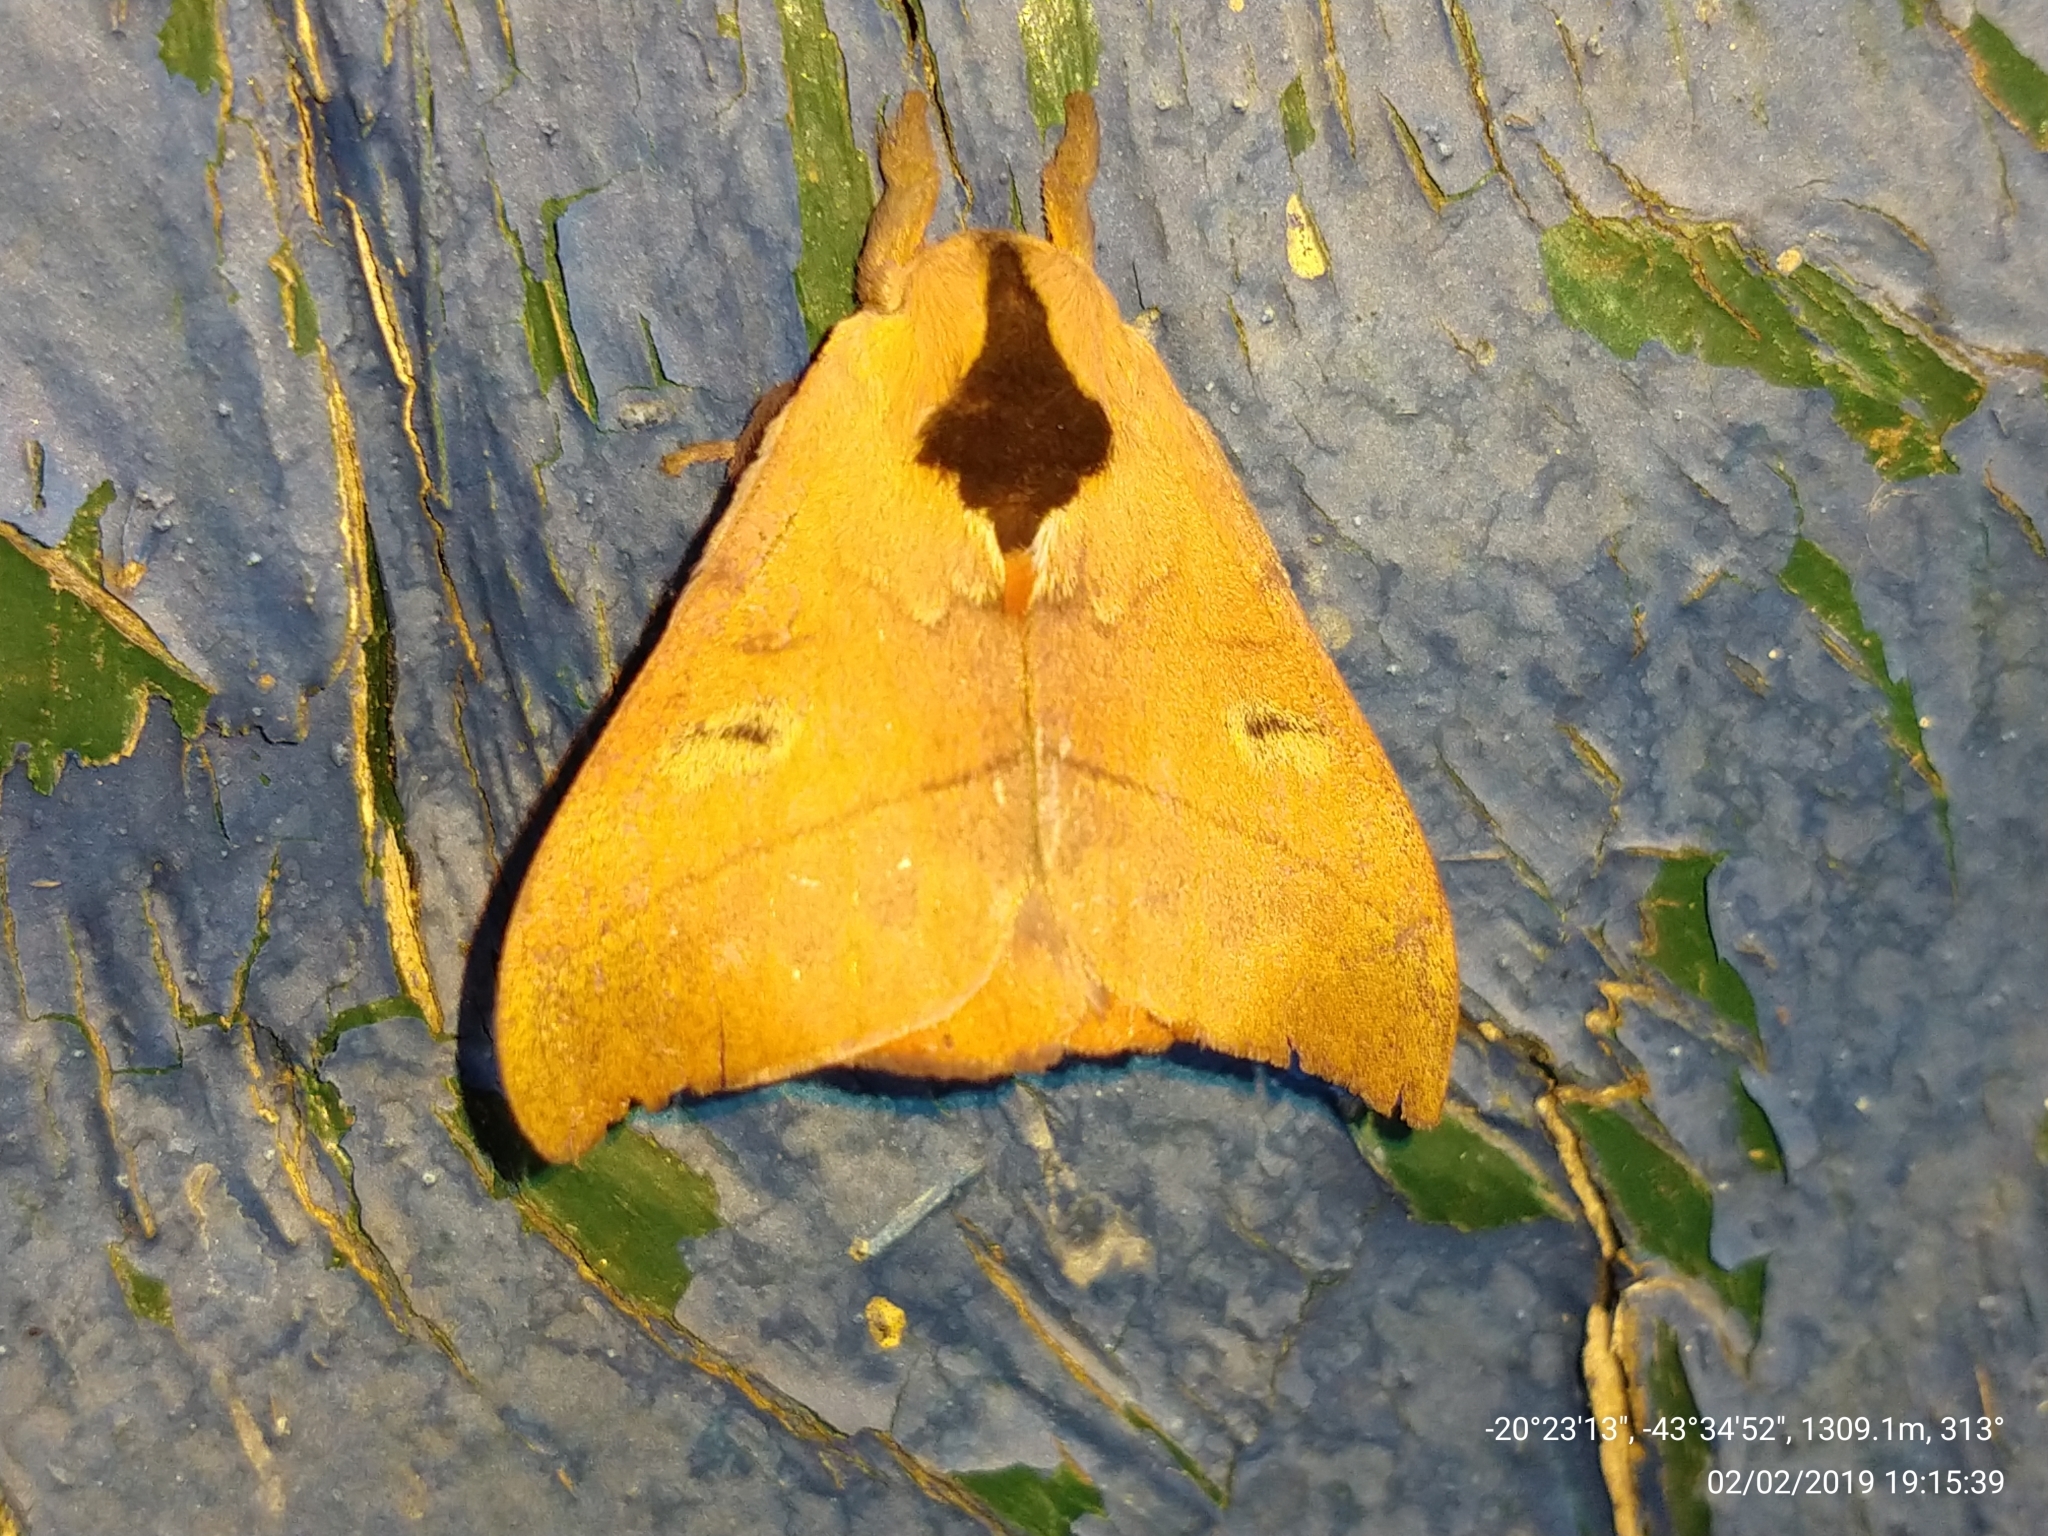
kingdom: Animalia
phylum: Arthropoda
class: Insecta
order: Lepidoptera
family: Saturniidae
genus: Hylesia
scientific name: Hylesia metapyrrha
